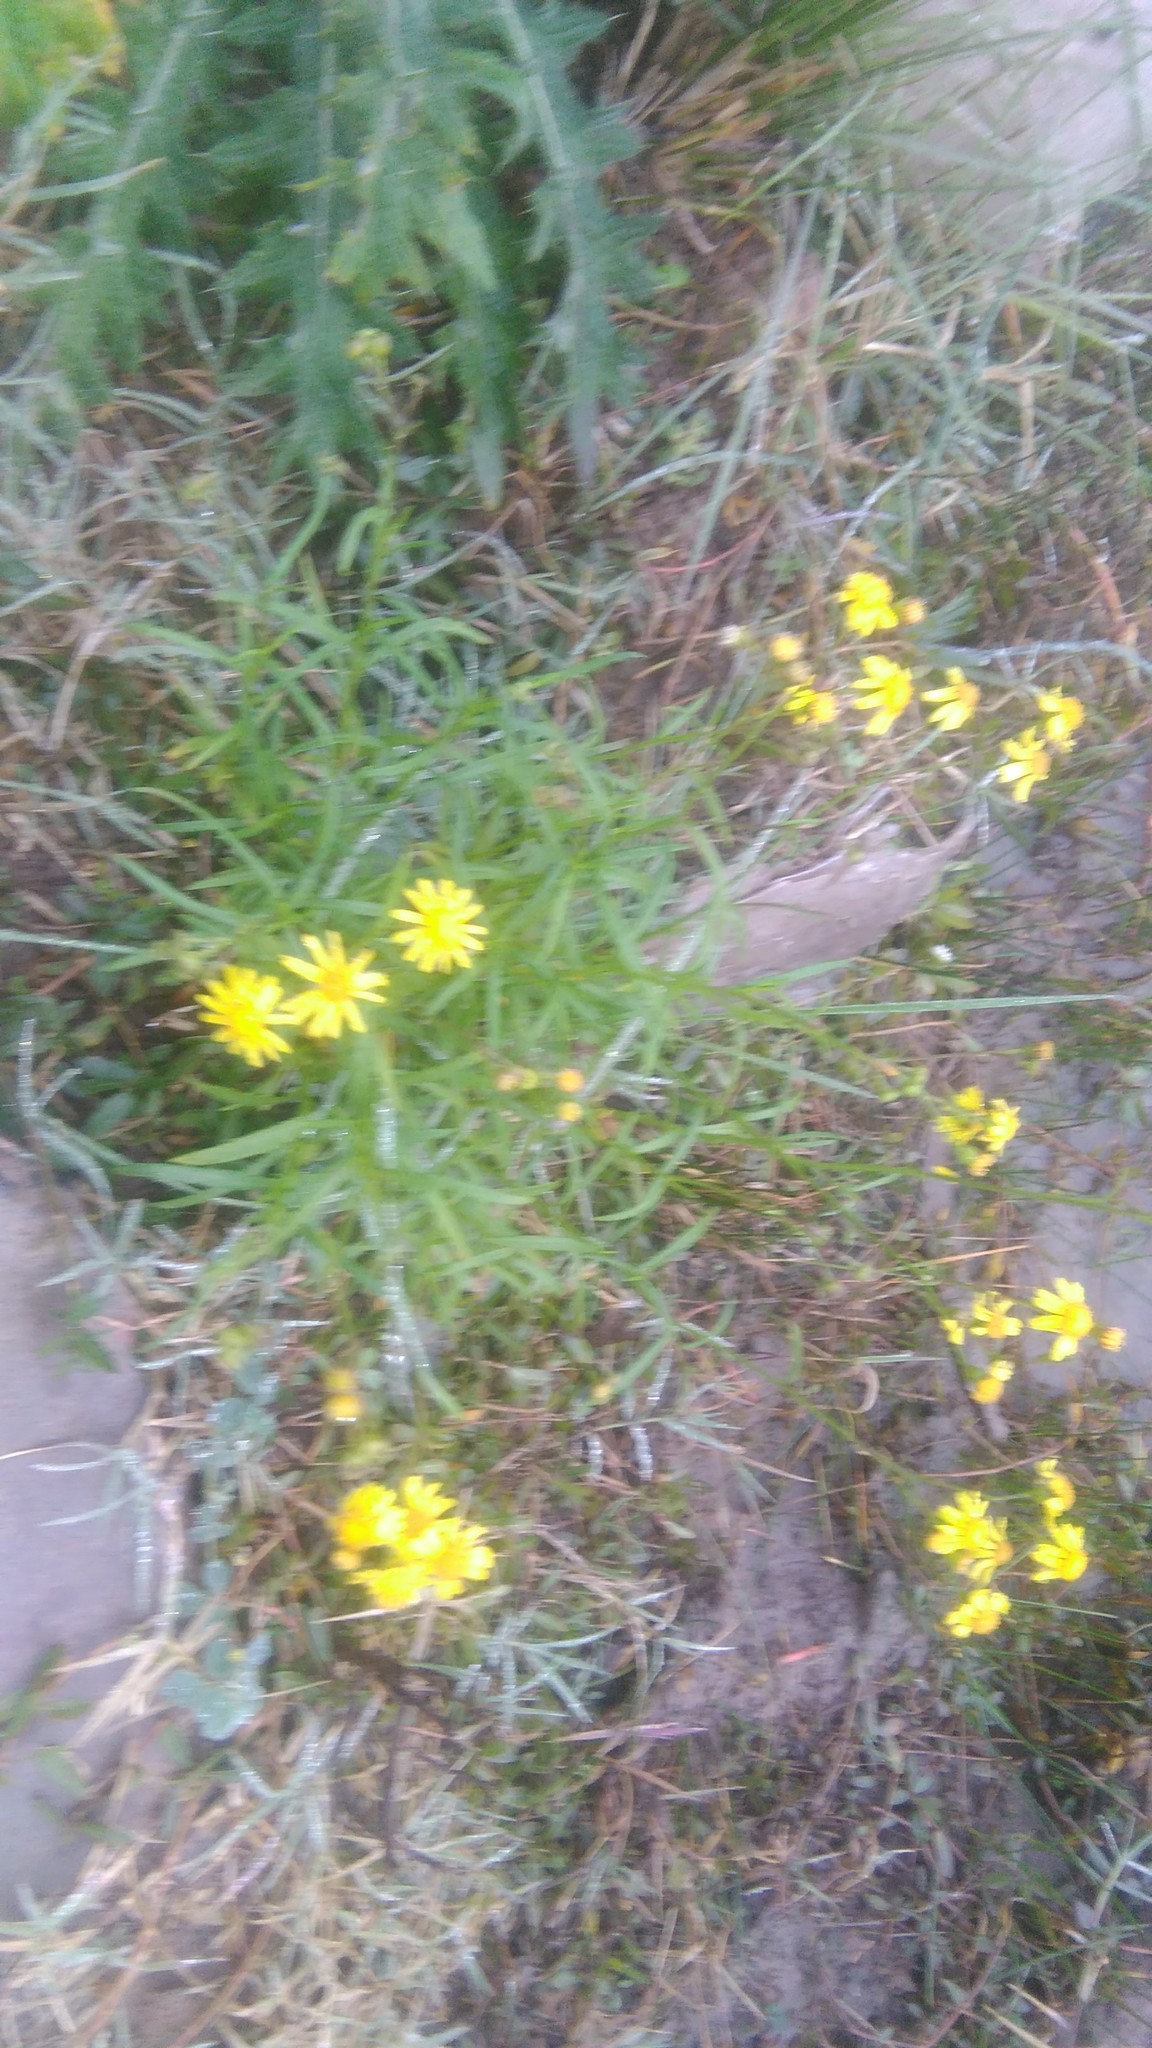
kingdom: Plantae
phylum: Tracheophyta
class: Magnoliopsida
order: Asterales
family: Asteraceae
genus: Senecio
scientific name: Senecio madagascariensis
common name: Madagascar ragwort
